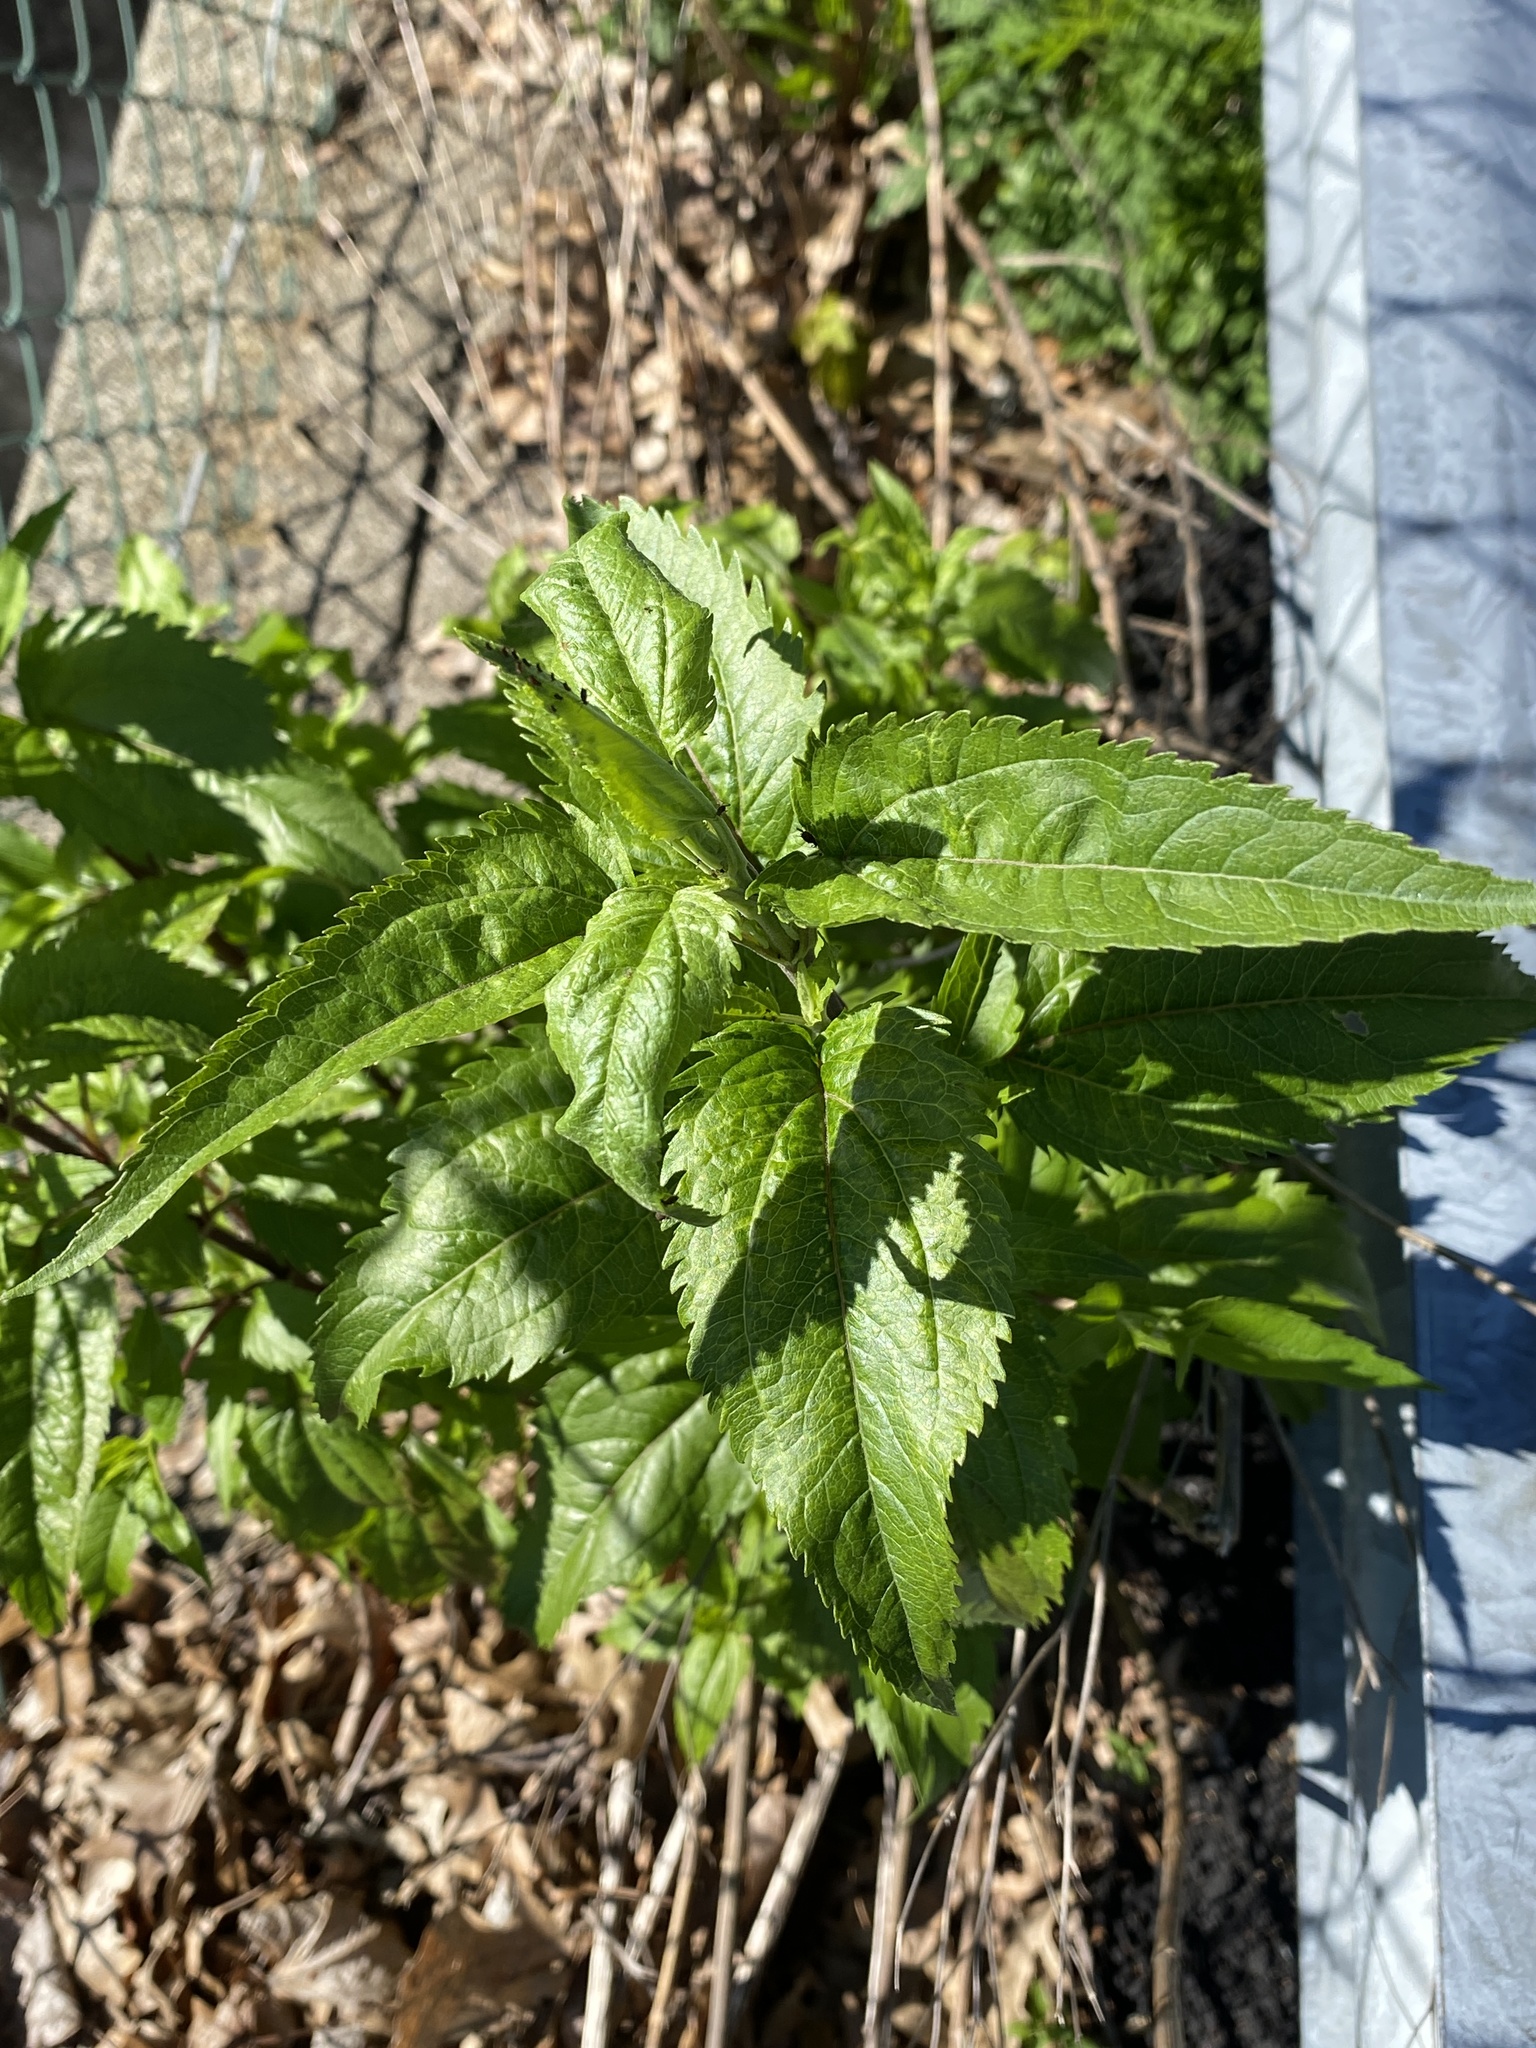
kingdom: Plantae
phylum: Tracheophyta
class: Magnoliopsida
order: Asterales
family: Asteraceae
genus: Eupatorium
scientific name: Eupatorium serotinum
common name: Late boneset
